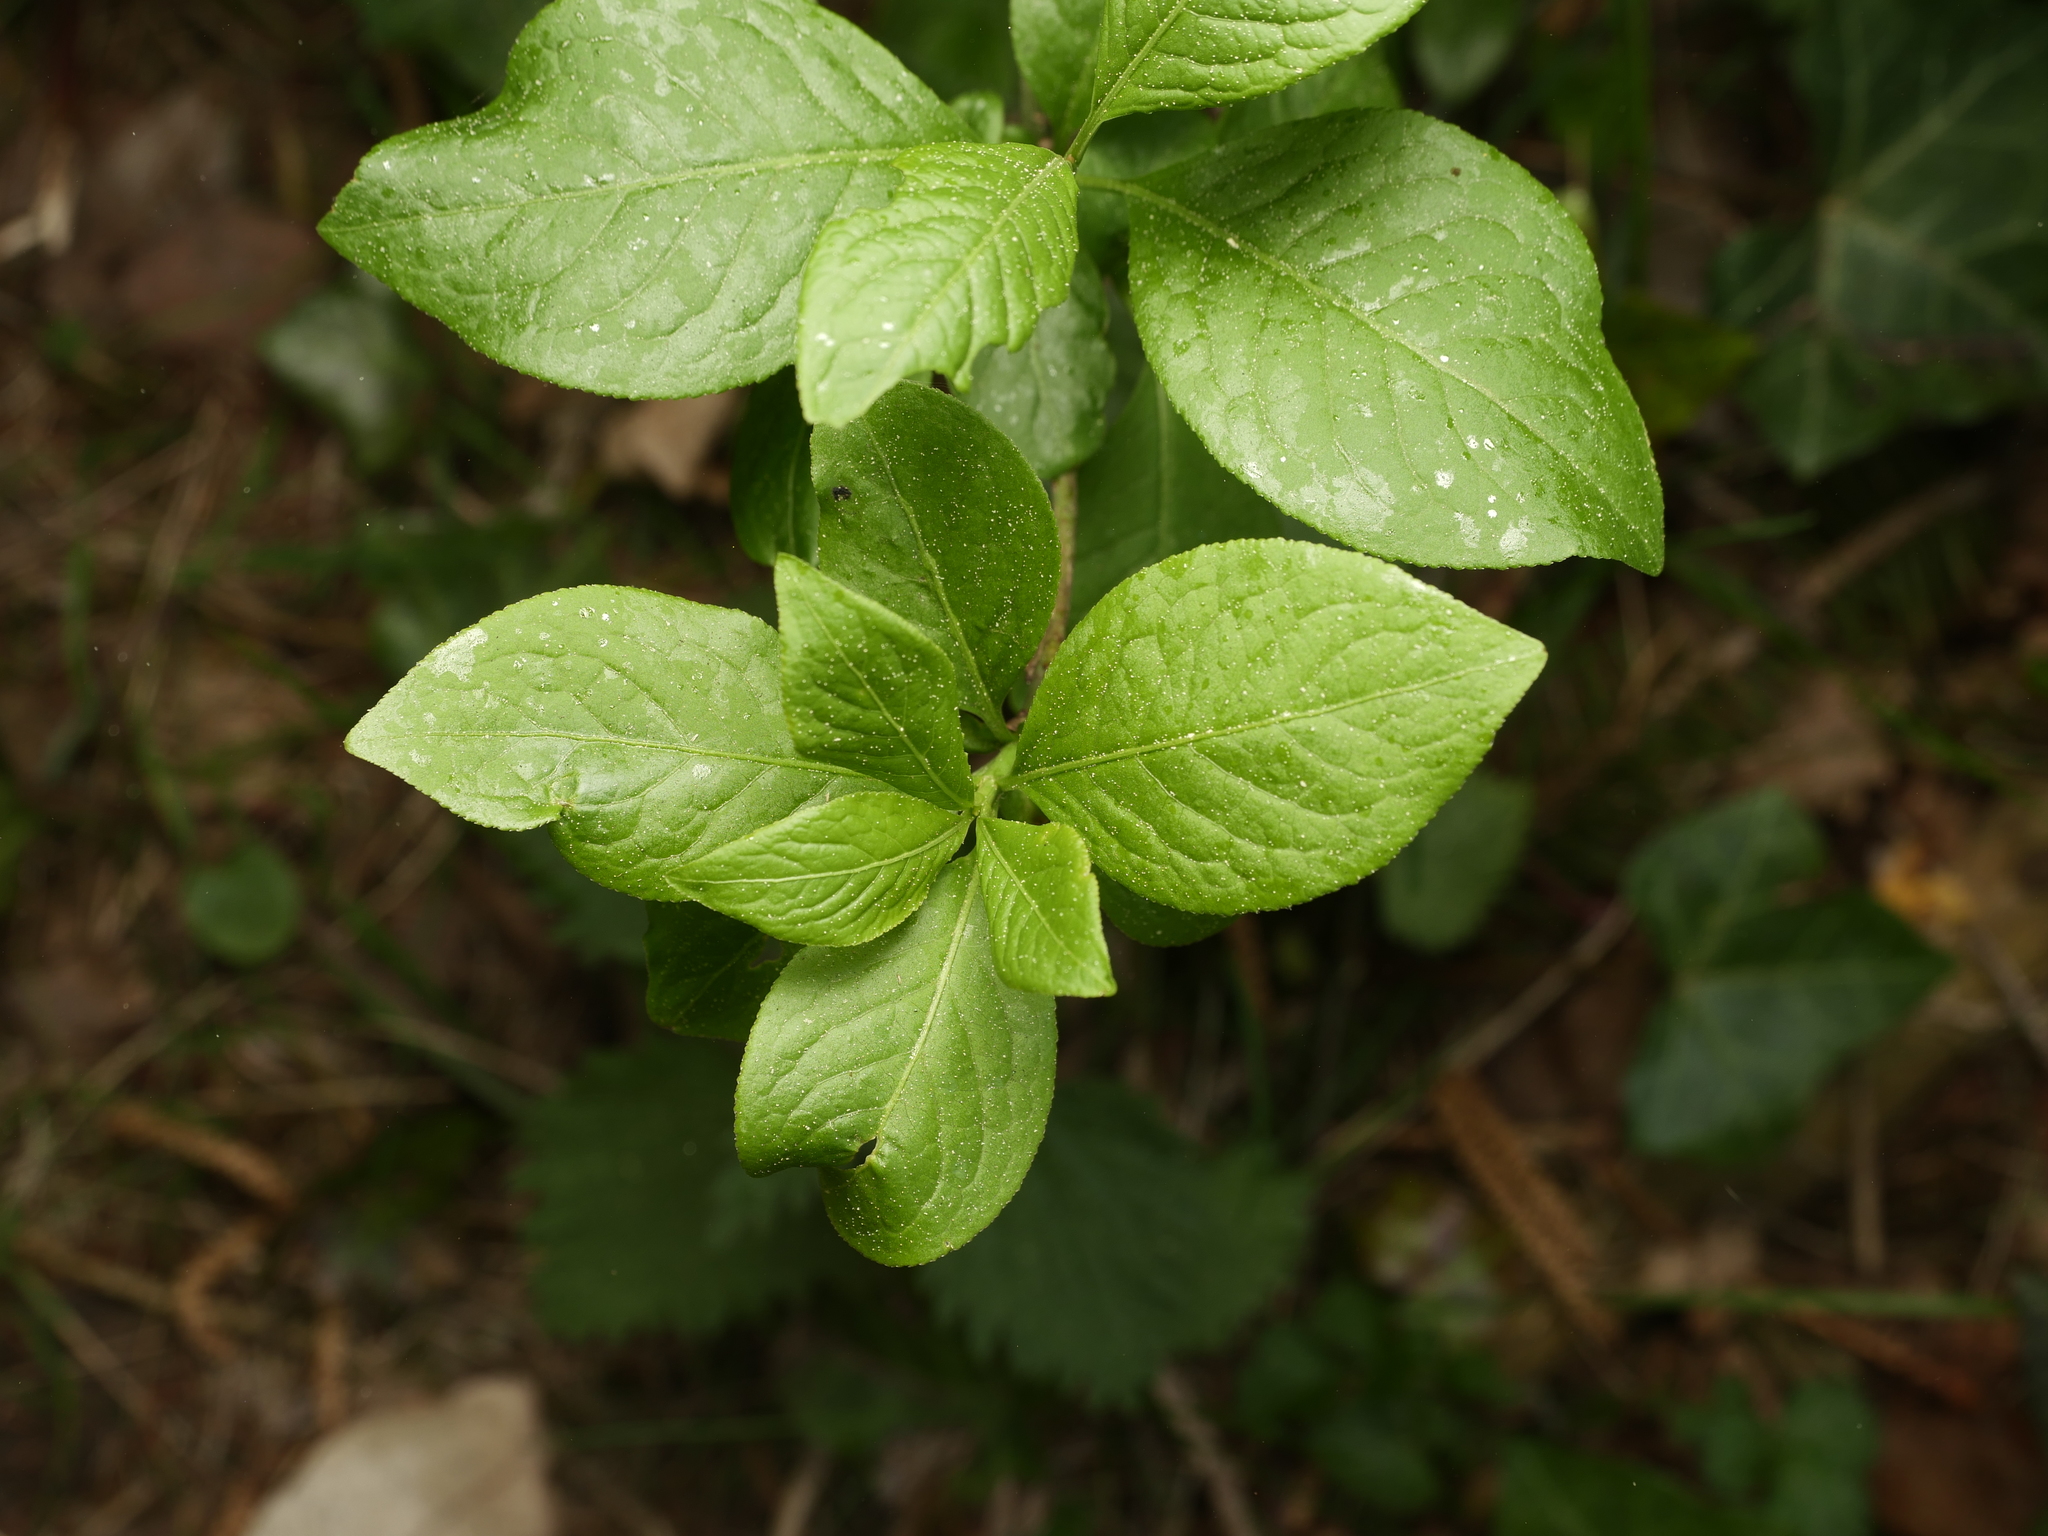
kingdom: Plantae
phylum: Tracheophyta
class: Magnoliopsida
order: Celastrales
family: Celastraceae
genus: Euonymus
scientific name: Euonymus europaeus
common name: Spindle
